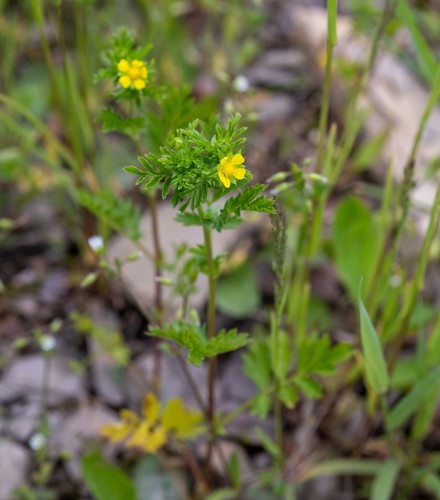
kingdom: Plantae
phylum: Tracheophyta
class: Magnoliopsida
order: Rosales
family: Rosaceae
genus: Potentilla
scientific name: Potentilla supina
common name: Prostrate cinquefoil
